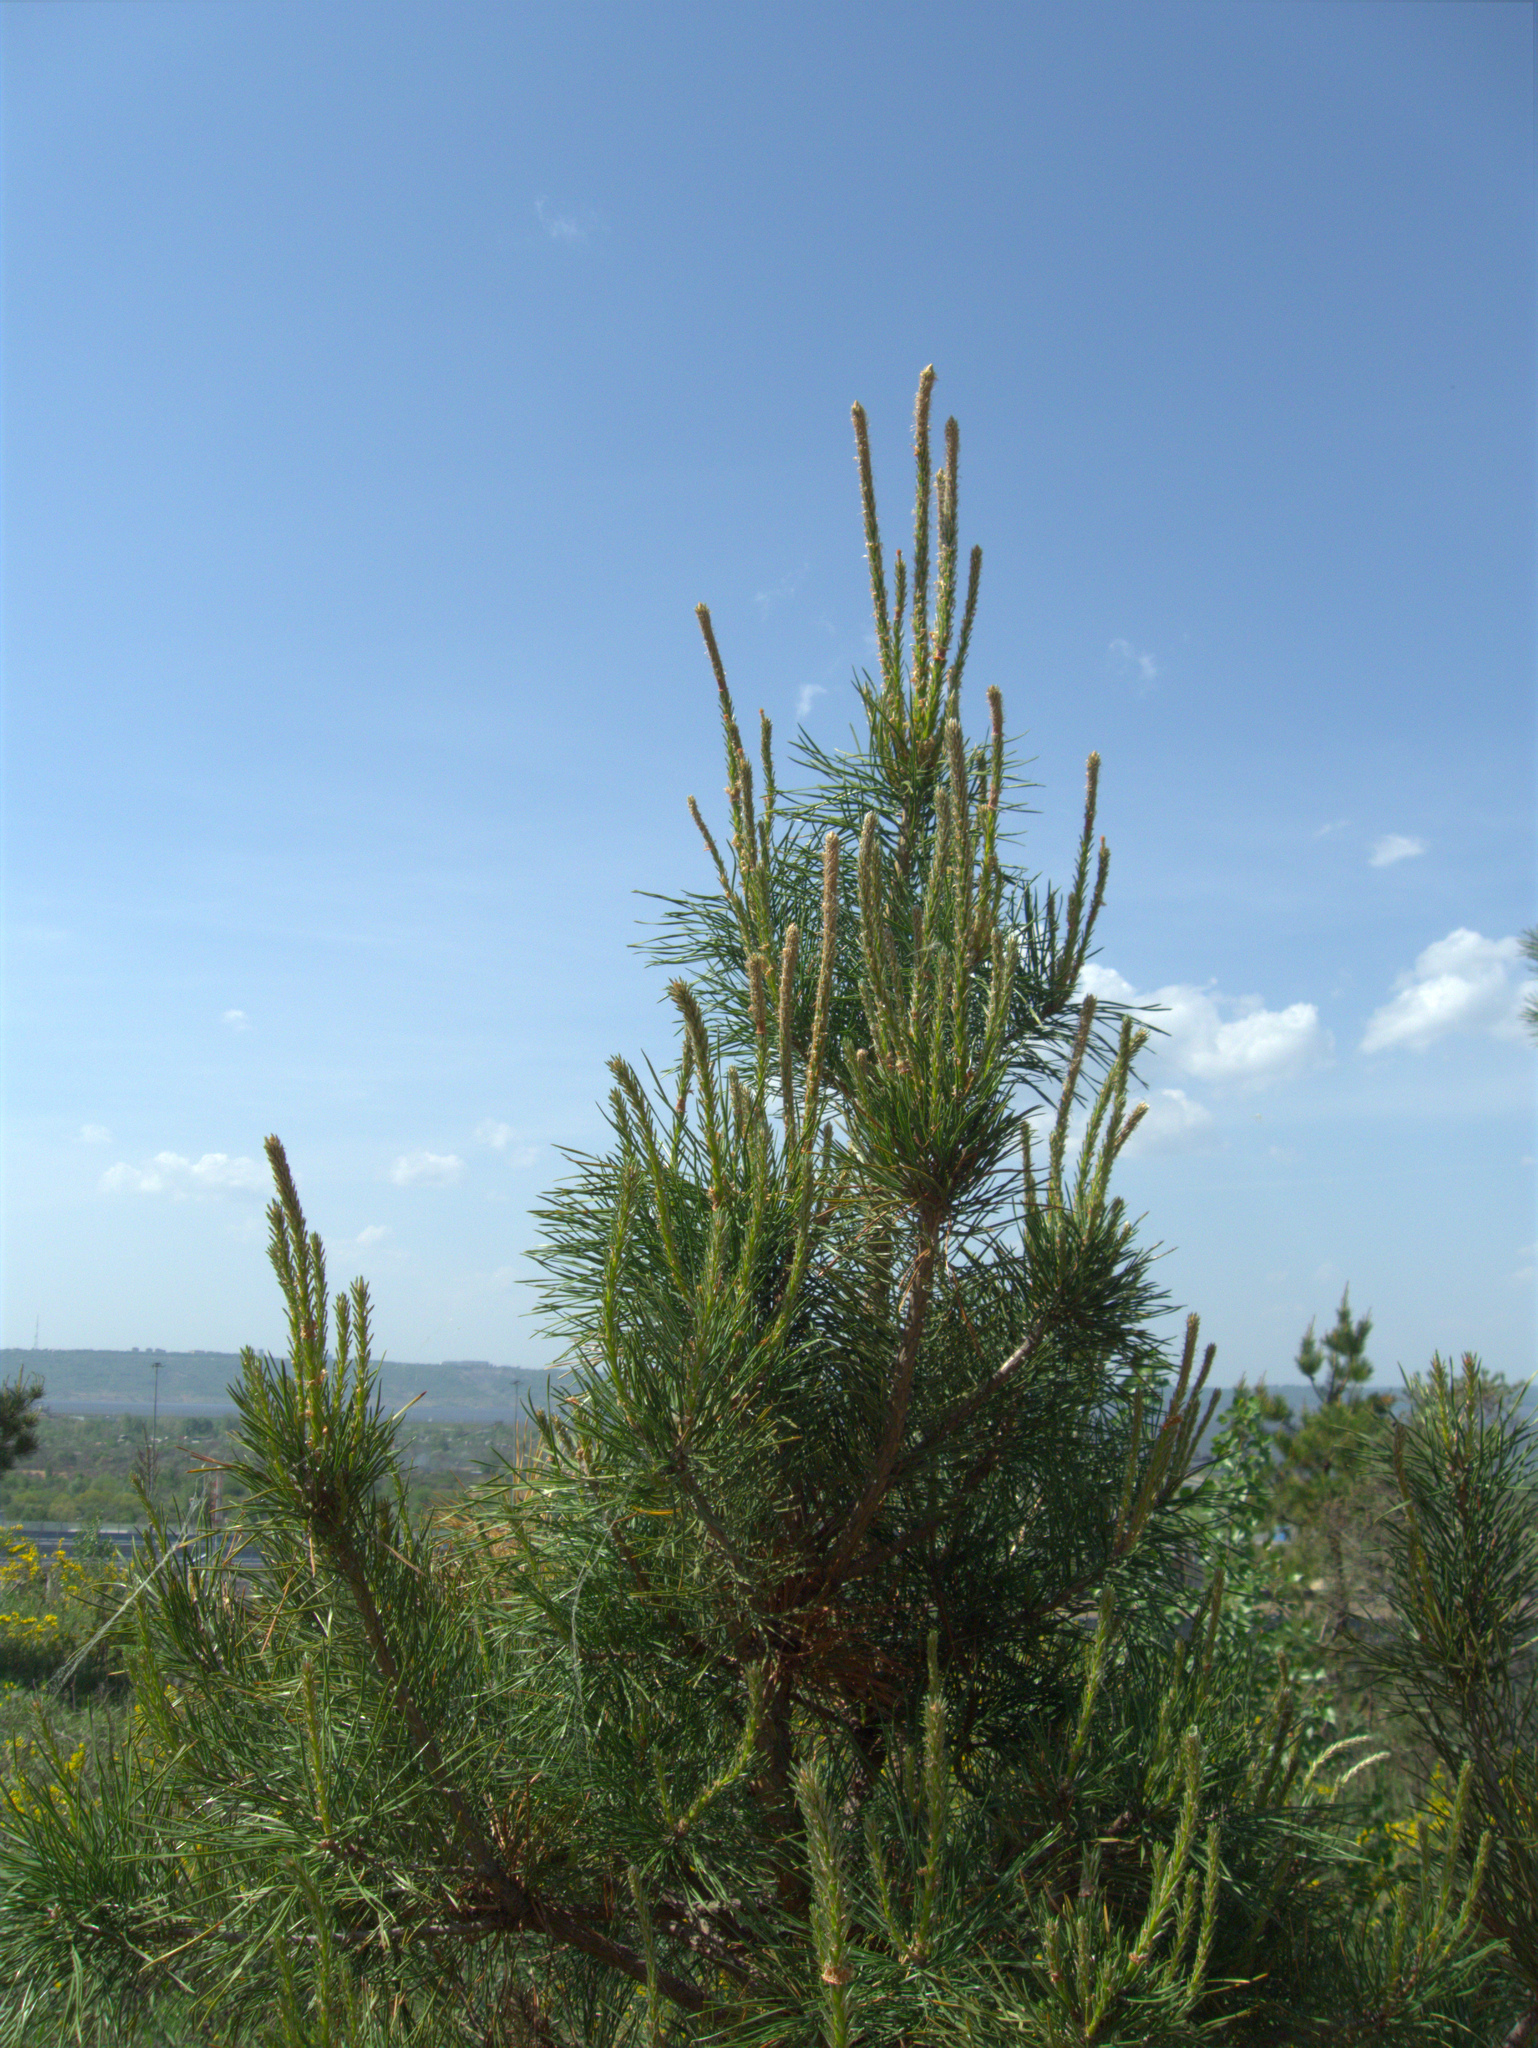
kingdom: Plantae
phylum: Tracheophyta
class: Pinopsida
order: Pinales
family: Pinaceae
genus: Pinus
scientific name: Pinus sylvestris
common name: Scots pine
